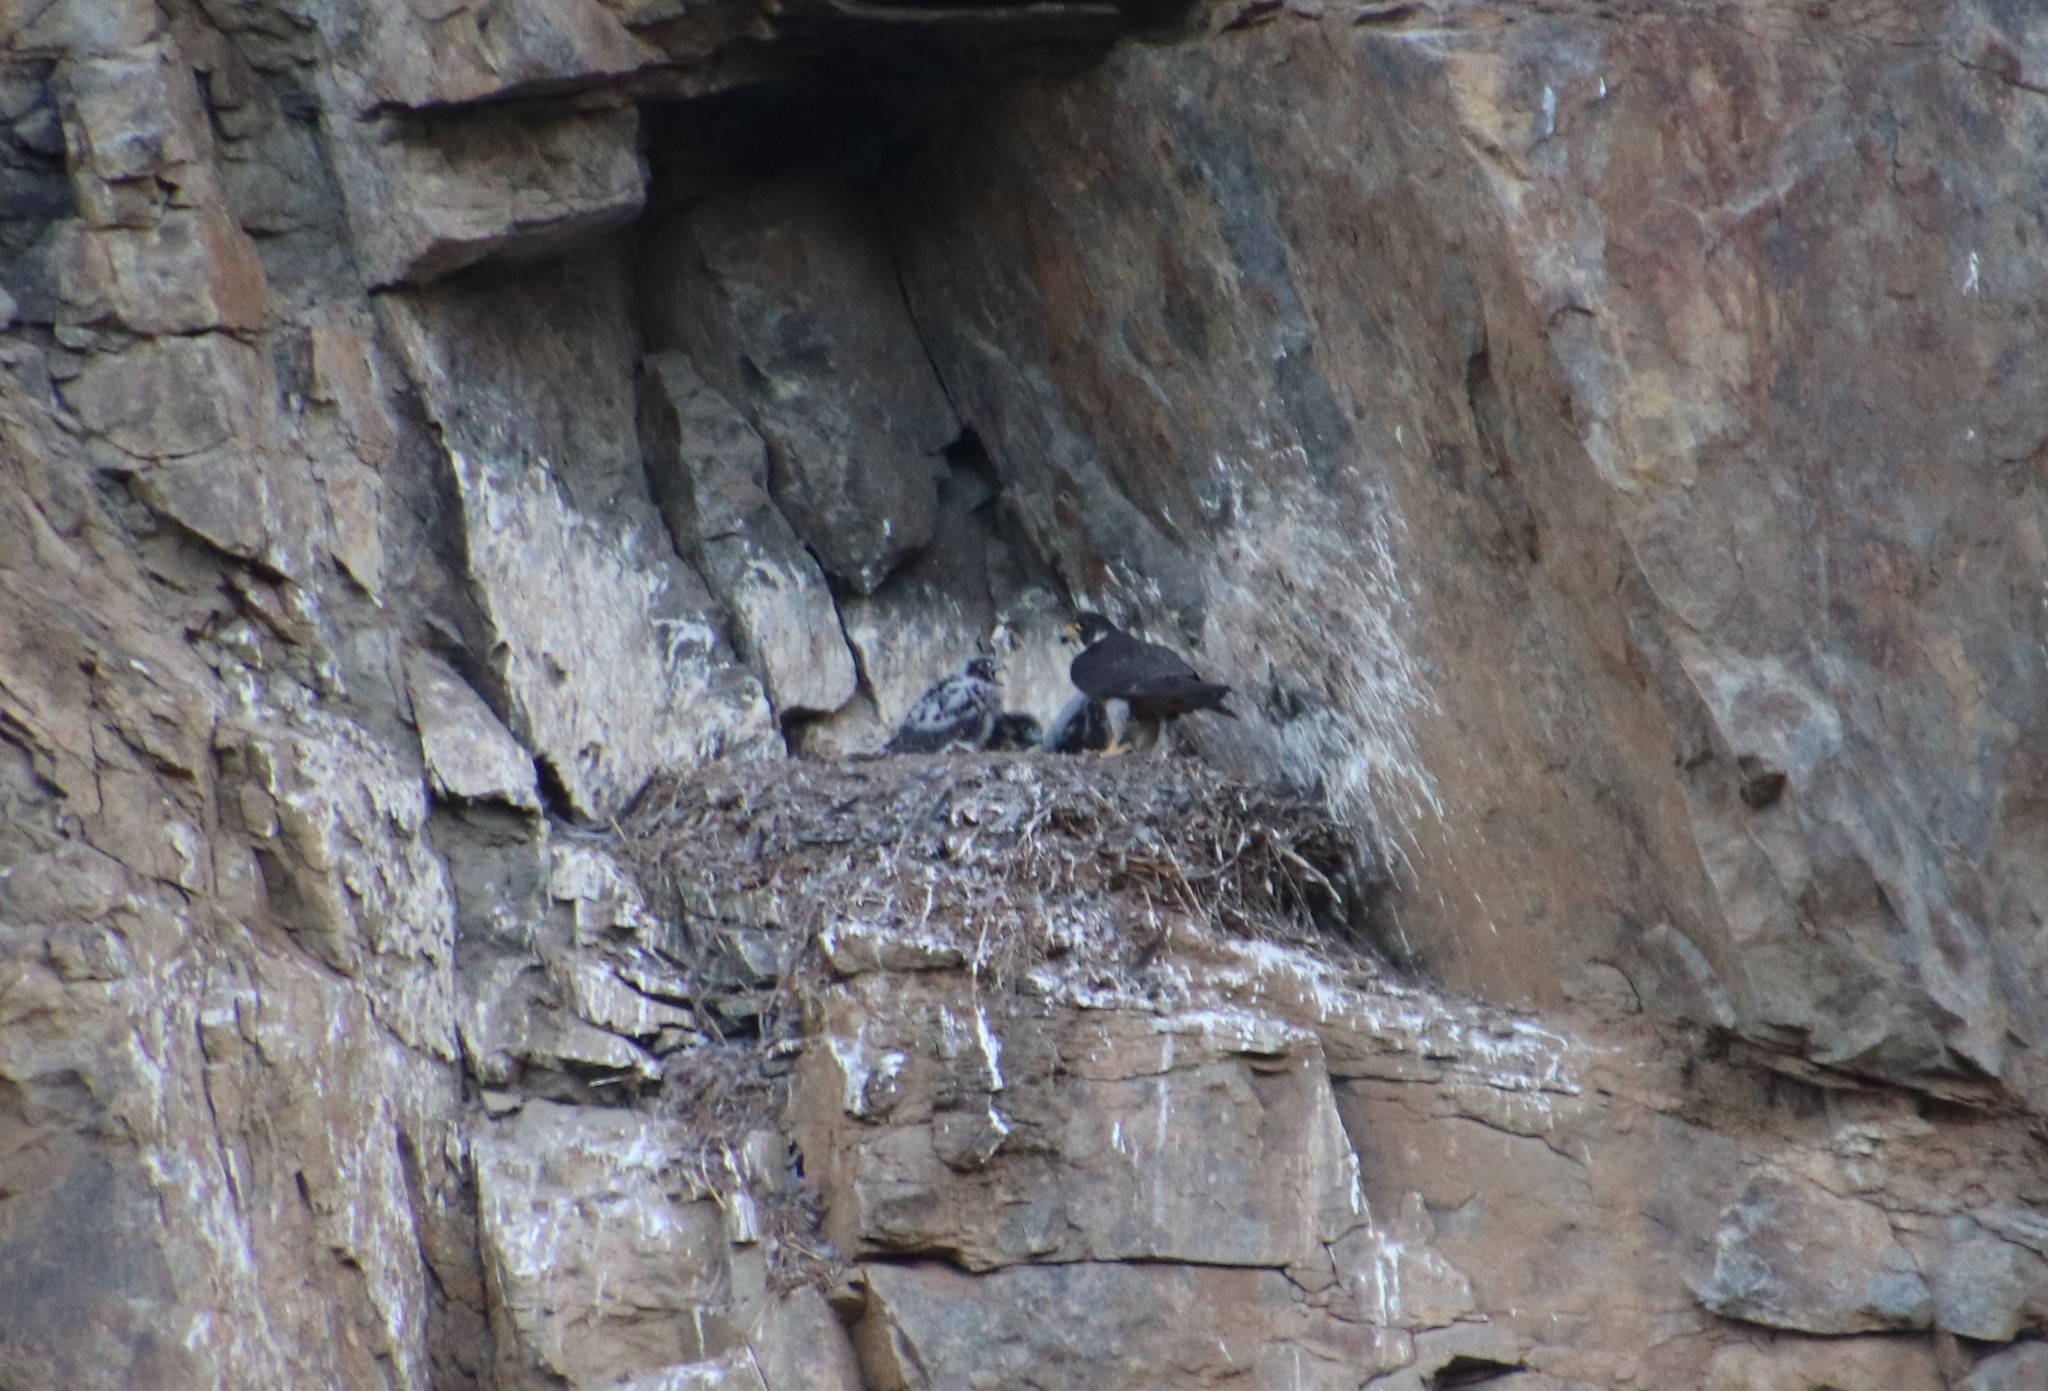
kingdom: Animalia
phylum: Chordata
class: Aves
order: Falconiformes
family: Falconidae
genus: Falco
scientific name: Falco peregrinus
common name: Peregrine falcon
